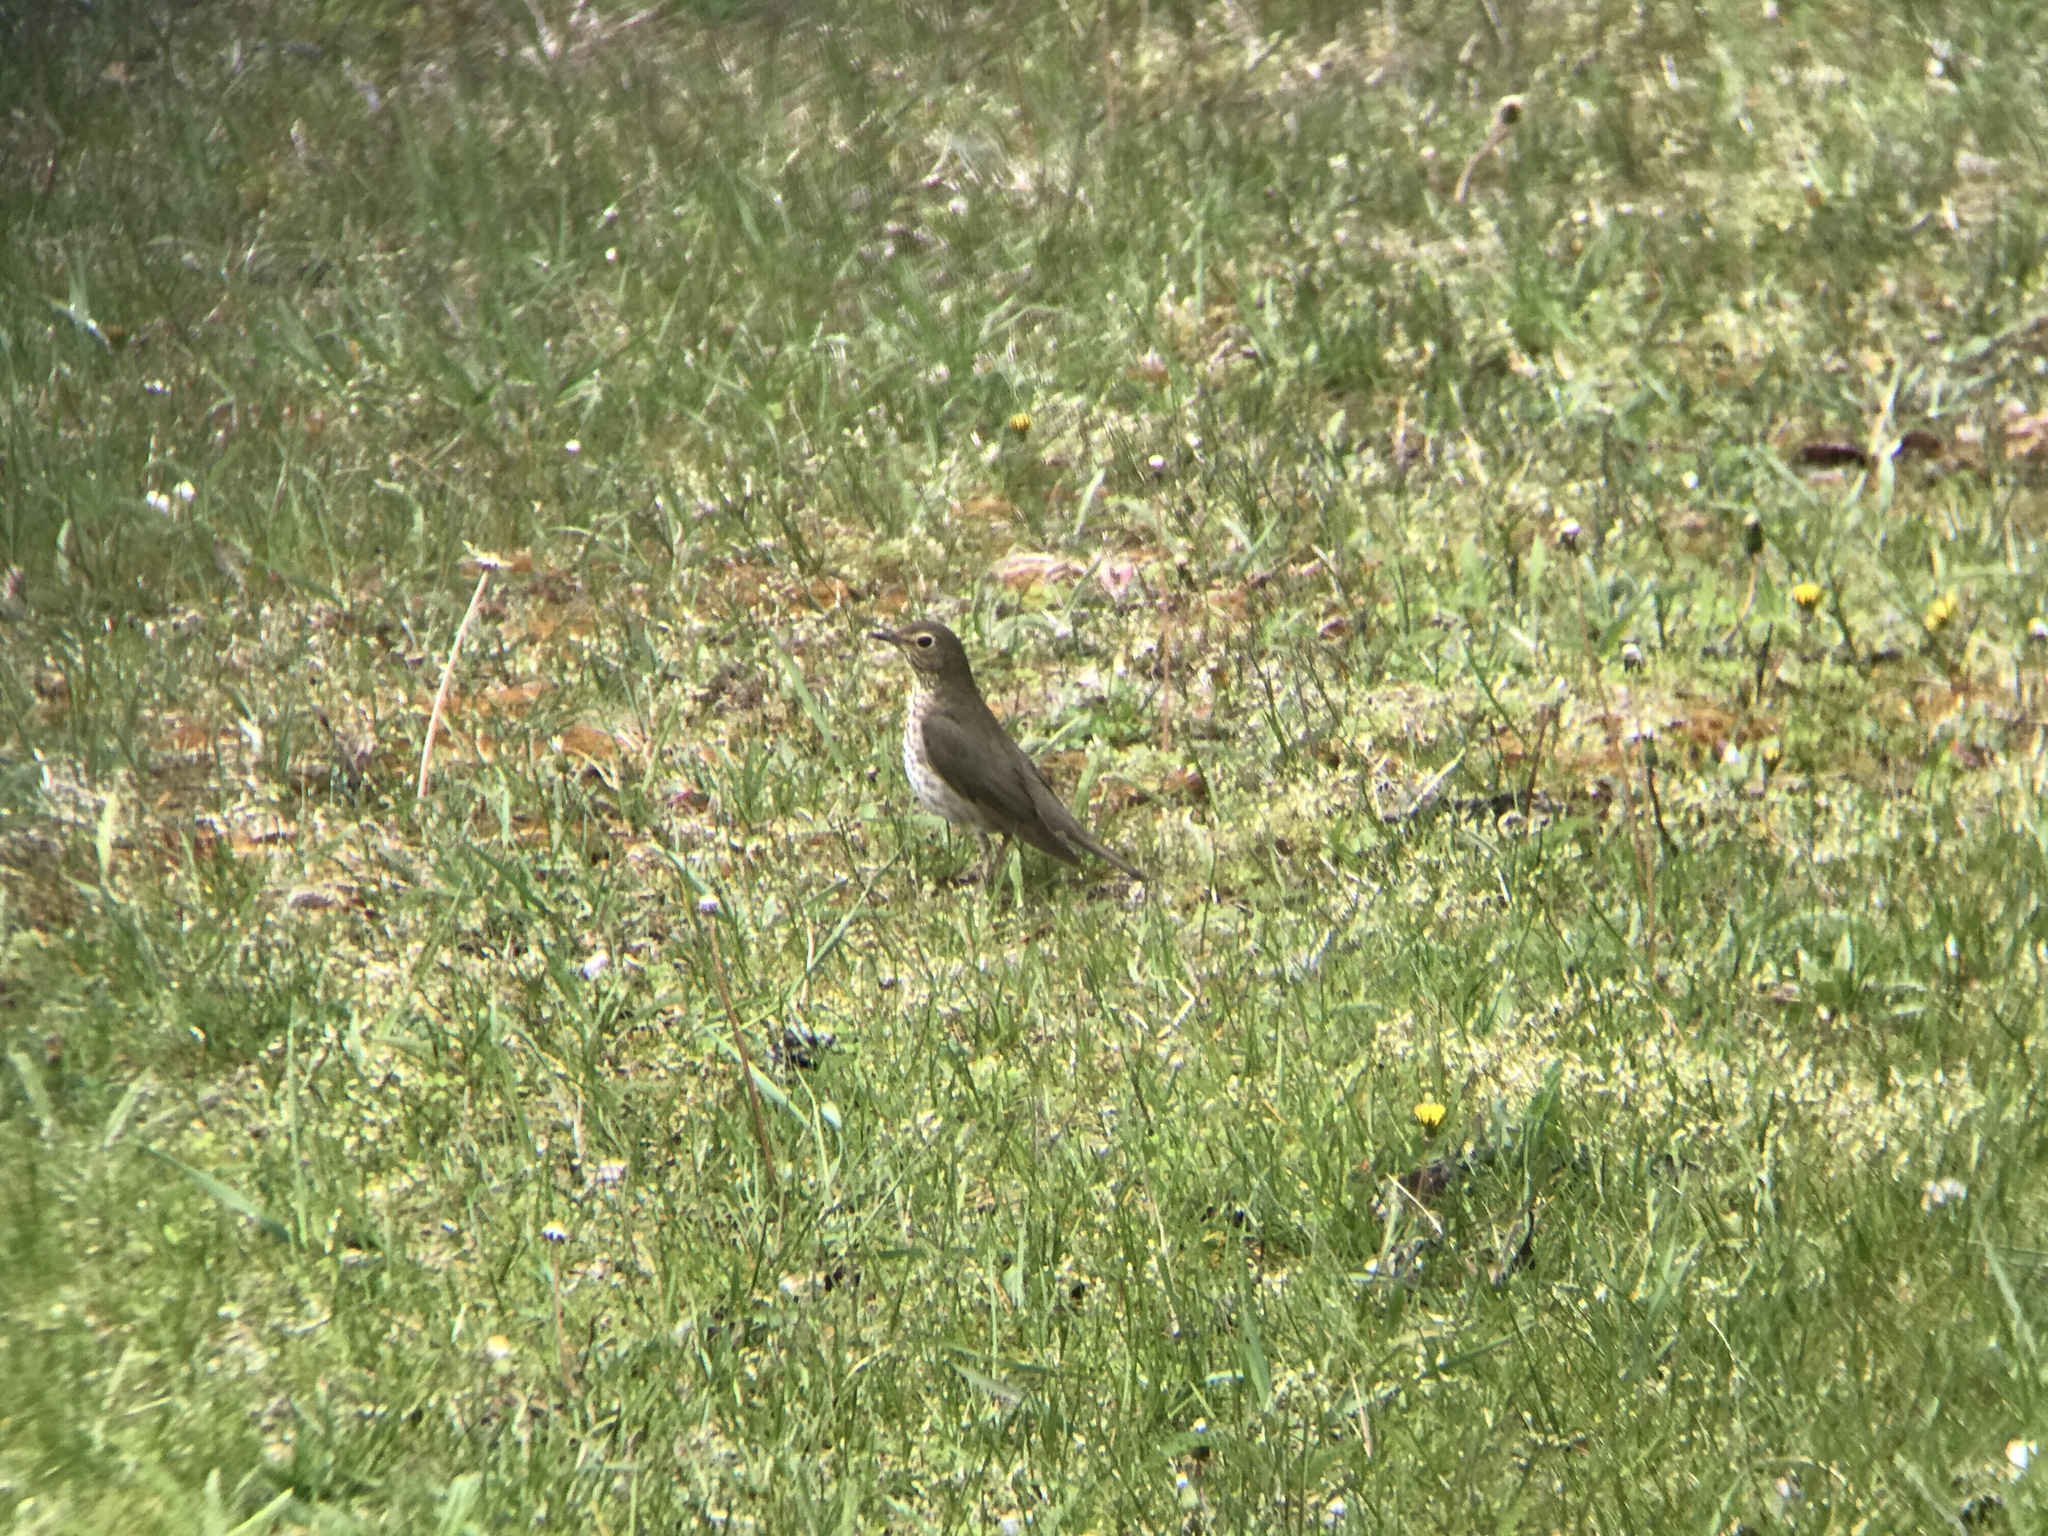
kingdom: Animalia
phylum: Chordata
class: Aves
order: Passeriformes
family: Turdidae
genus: Catharus
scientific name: Catharus ustulatus
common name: Swainson's thrush
